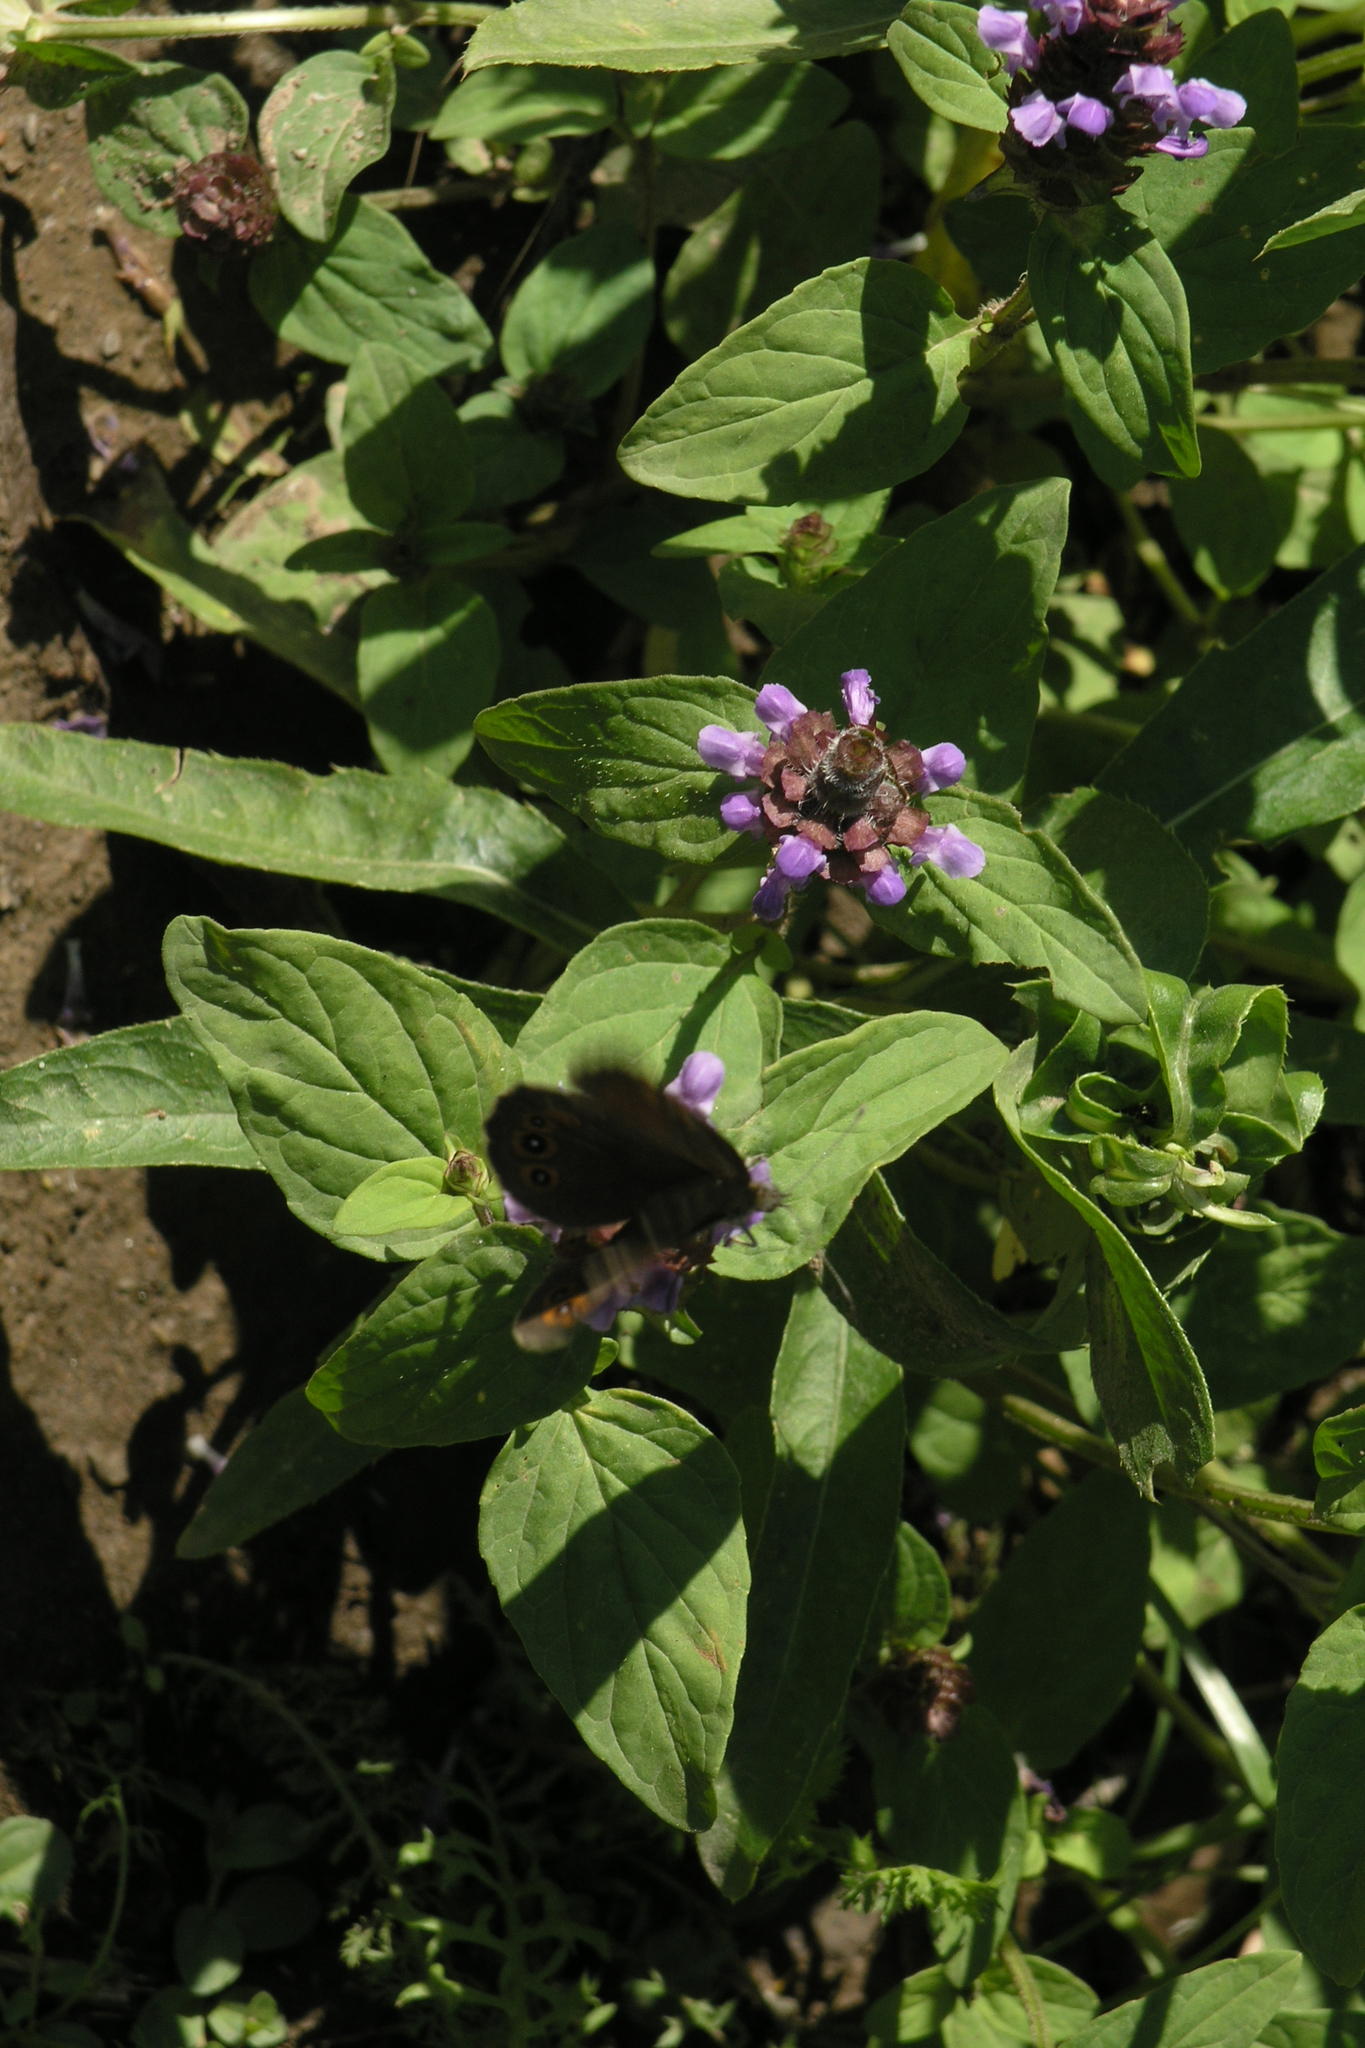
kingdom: Plantae
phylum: Tracheophyta
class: Magnoliopsida
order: Lamiales
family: Lamiaceae
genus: Prunella
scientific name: Prunella vulgaris
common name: Heal-all
